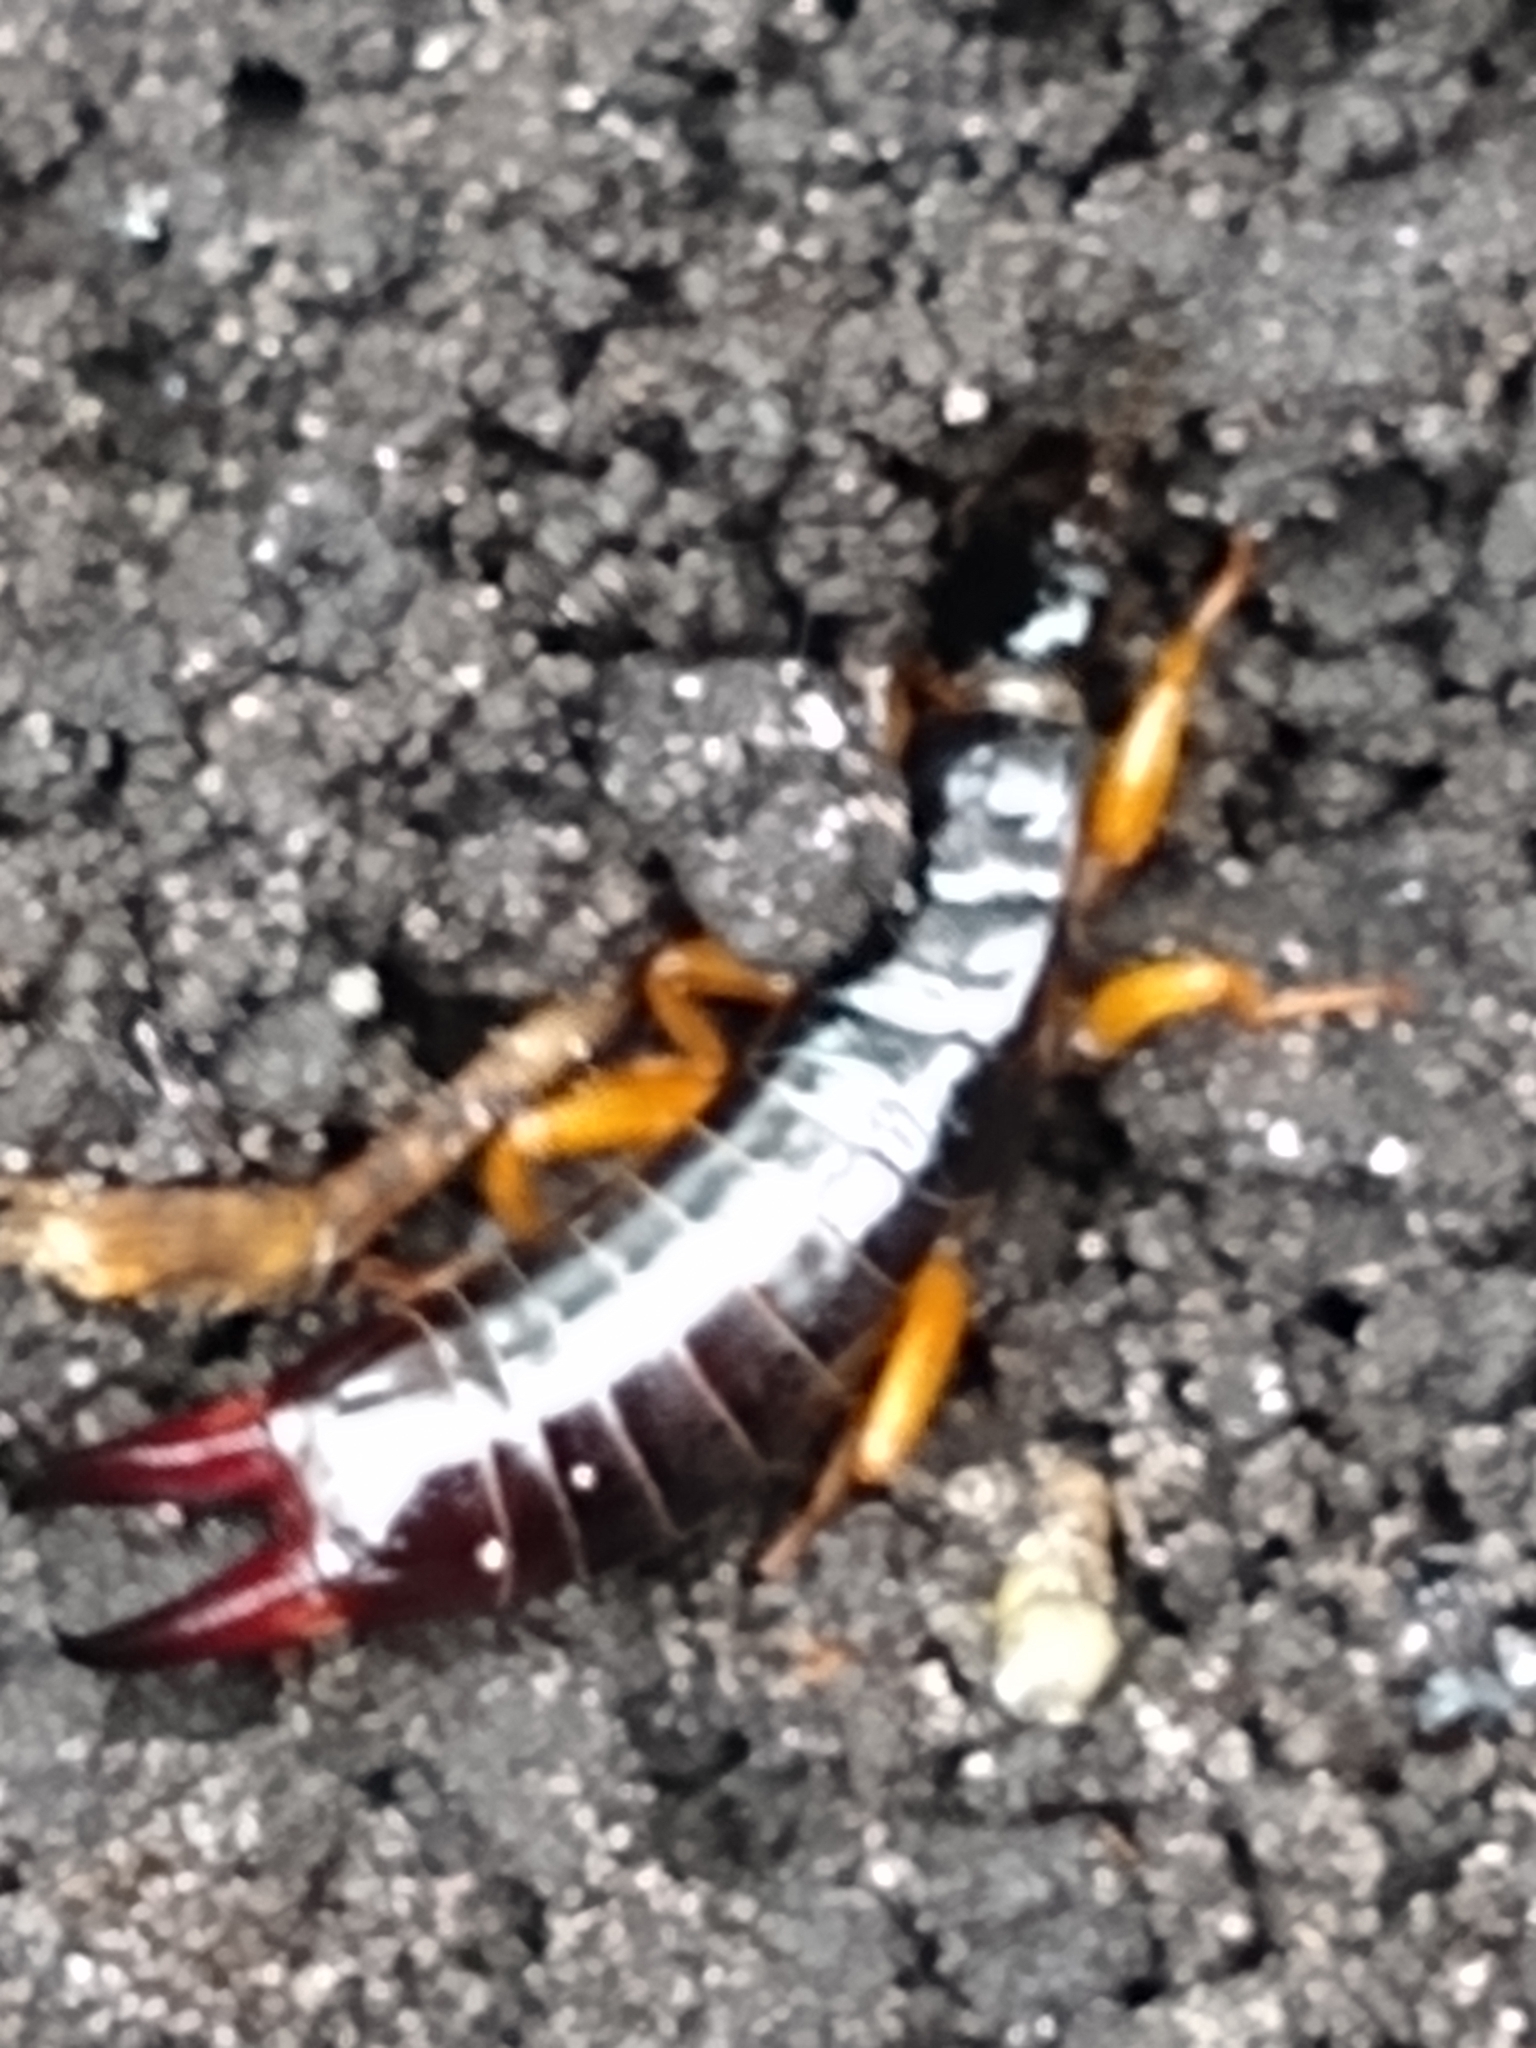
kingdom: Animalia
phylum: Arthropoda
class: Insecta
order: Dermaptera
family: Anisolabididae
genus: Euborellia
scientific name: Euborellia arcanum
